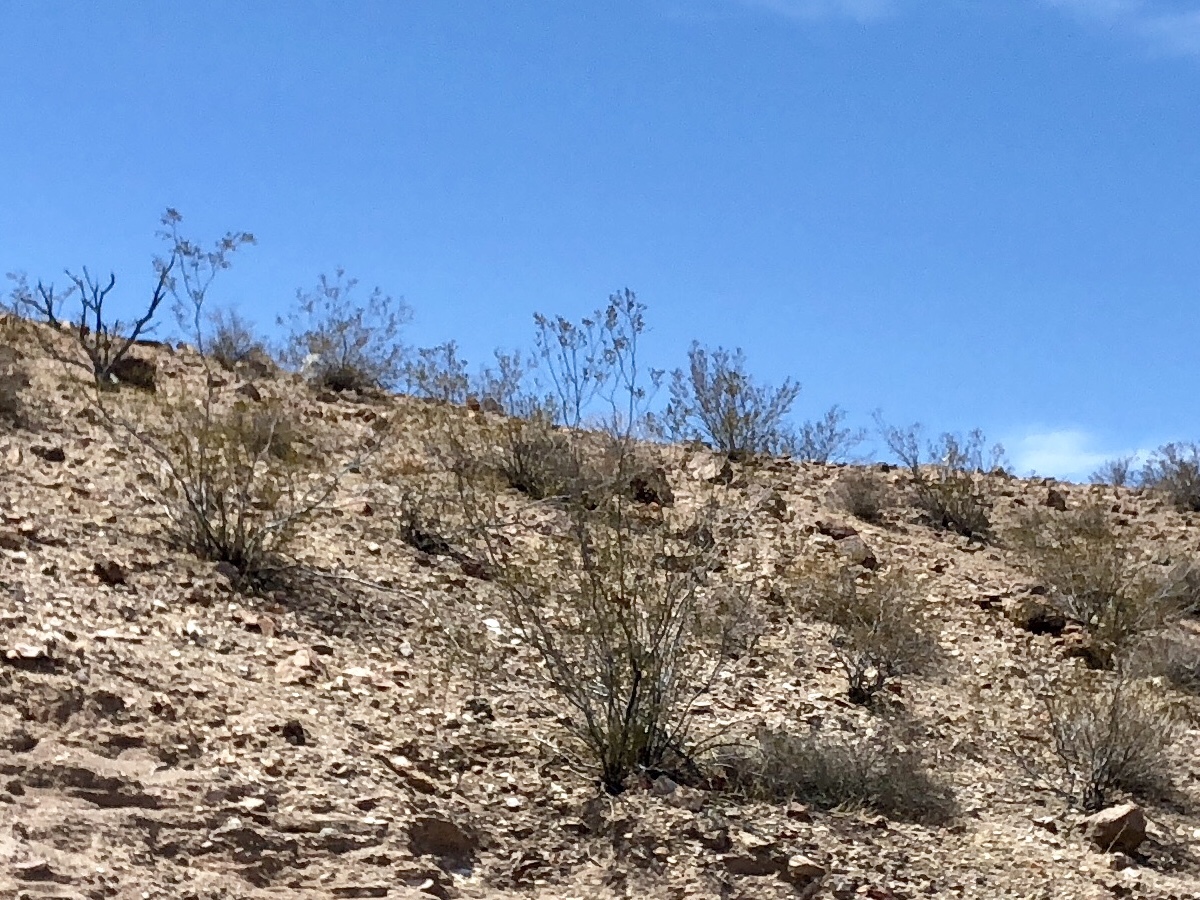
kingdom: Plantae
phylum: Tracheophyta
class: Magnoliopsida
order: Zygophyllales
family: Zygophyllaceae
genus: Larrea
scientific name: Larrea tridentata
